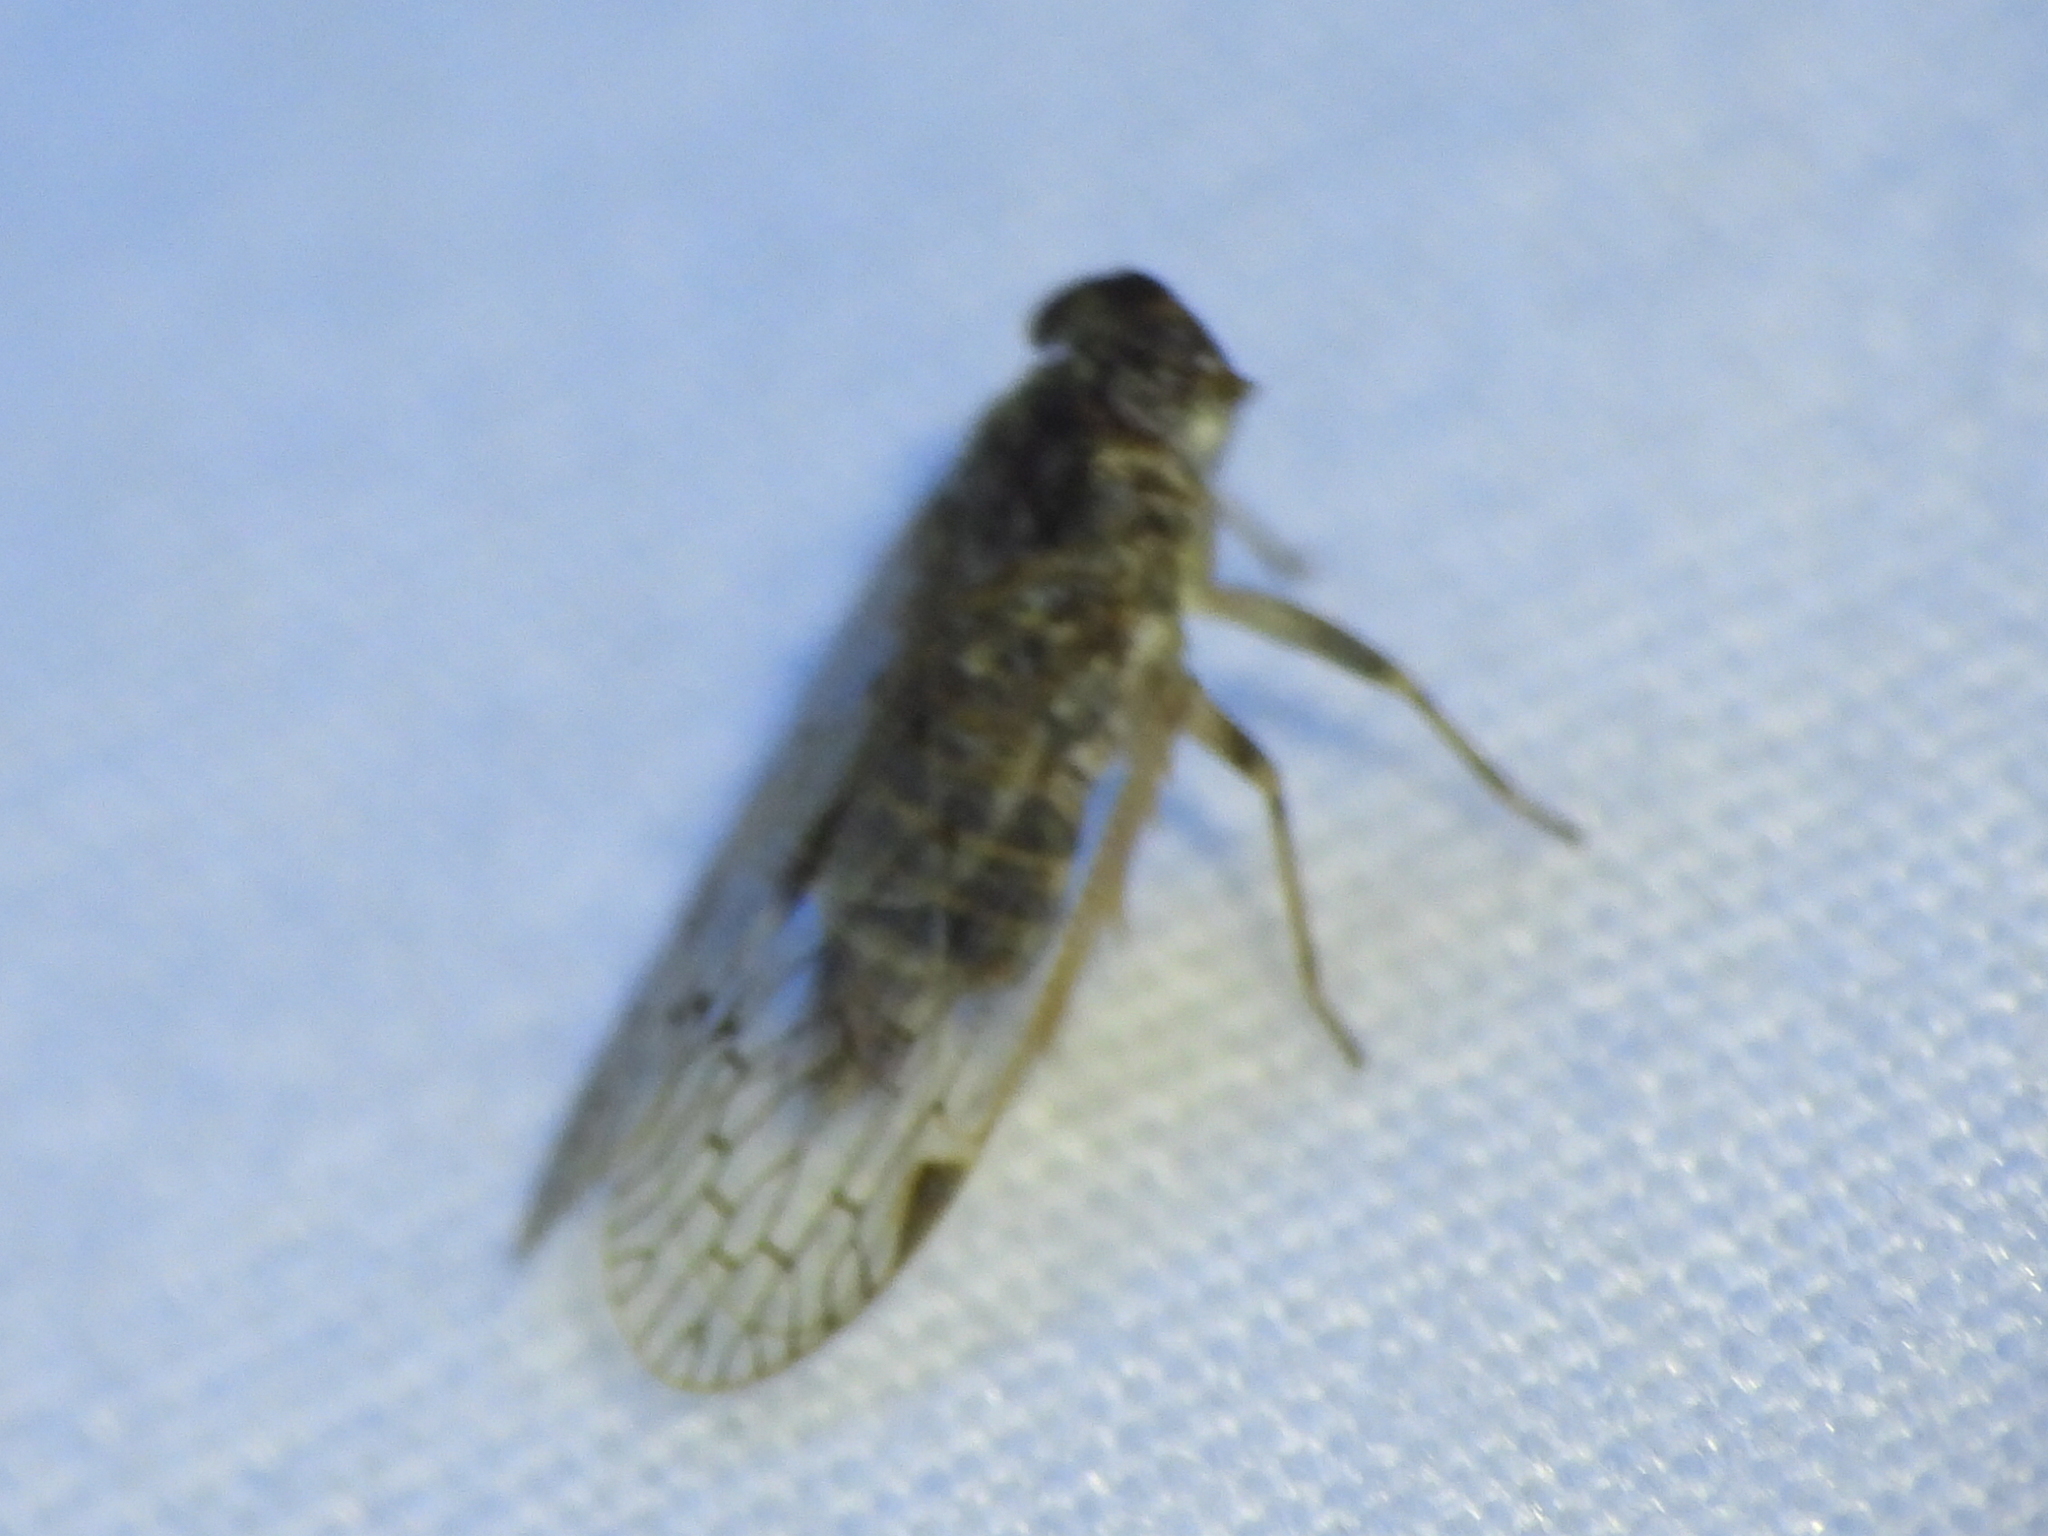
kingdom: Animalia
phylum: Arthropoda
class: Insecta
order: Hemiptera
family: Cixiidae
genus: Melanoliarus
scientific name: Melanoliarus aridus
